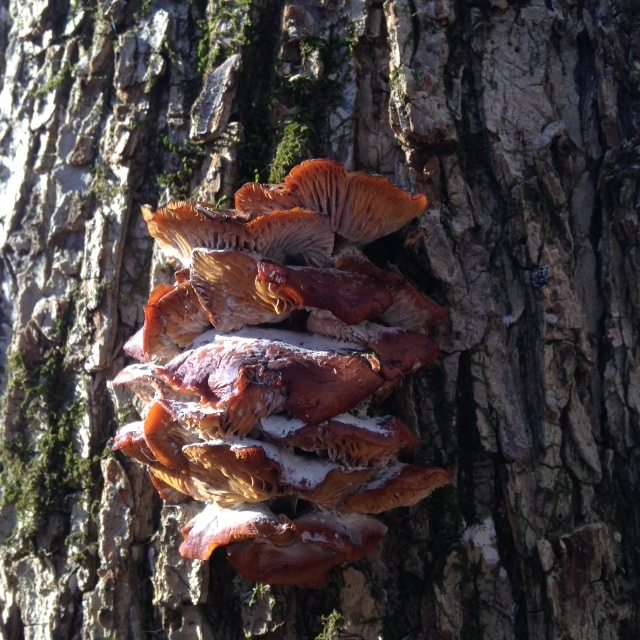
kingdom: Fungi
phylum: Basidiomycota
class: Agaricomycetes
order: Agaricales
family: Physalacriaceae
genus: Flammulina
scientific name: Flammulina velutipes
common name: Velvet shank
